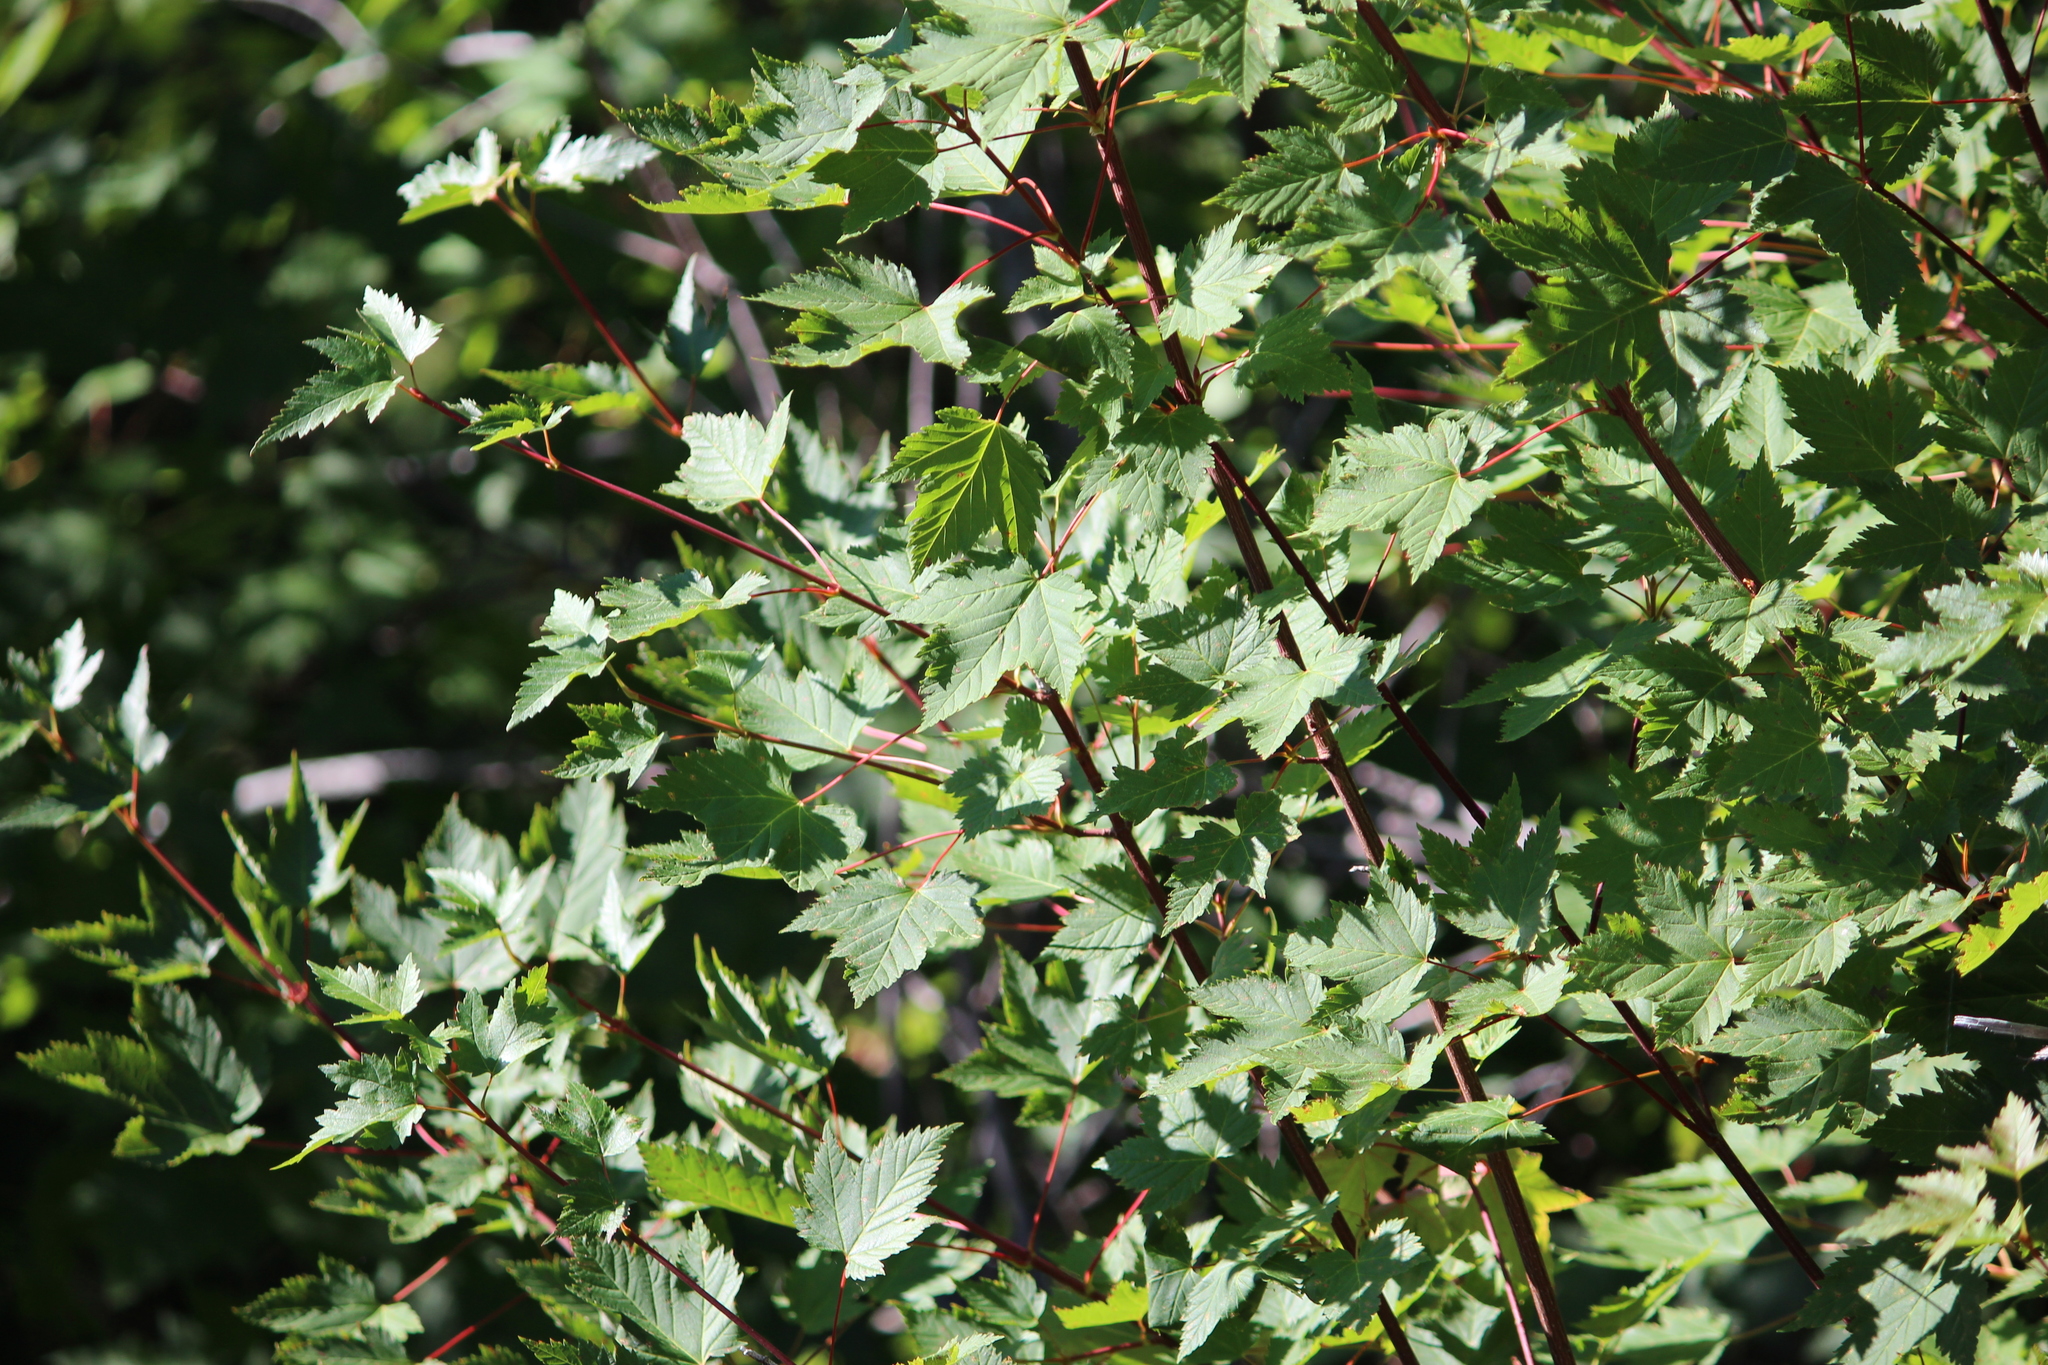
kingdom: Plantae
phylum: Tracheophyta
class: Magnoliopsida
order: Sapindales
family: Sapindaceae
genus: Acer
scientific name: Acer glabrum
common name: Rocky mountain maple
